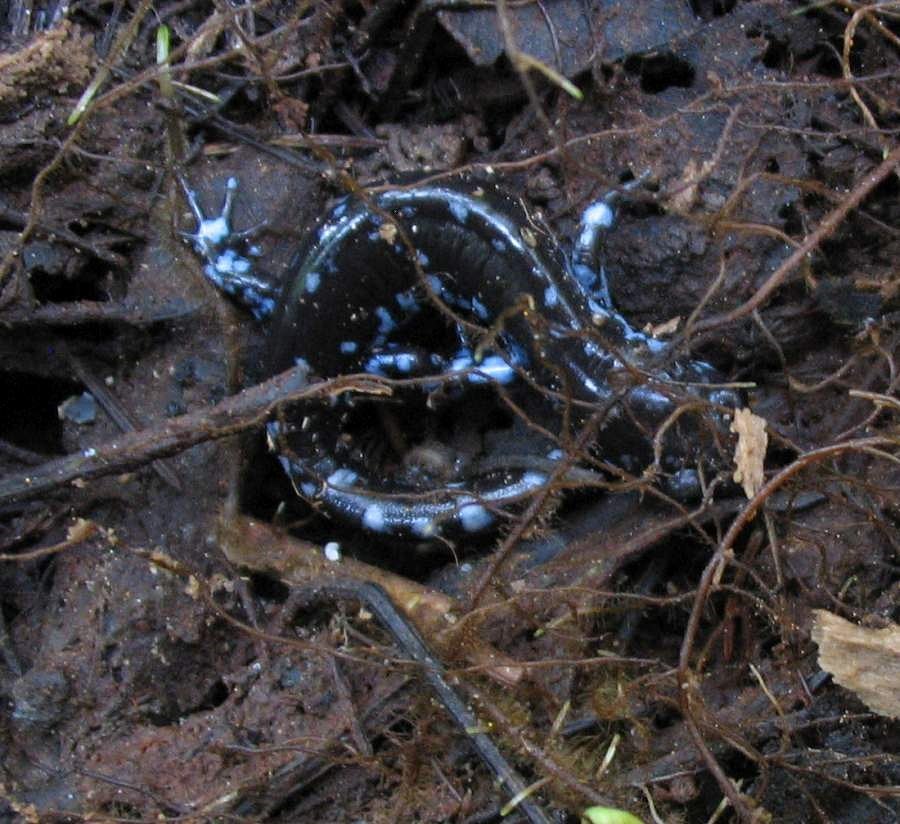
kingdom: Animalia
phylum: Chordata
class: Amphibia
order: Caudata
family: Ambystomatidae
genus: Ambystoma
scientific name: Ambystoma laterale
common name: Blue-spotted salamander
